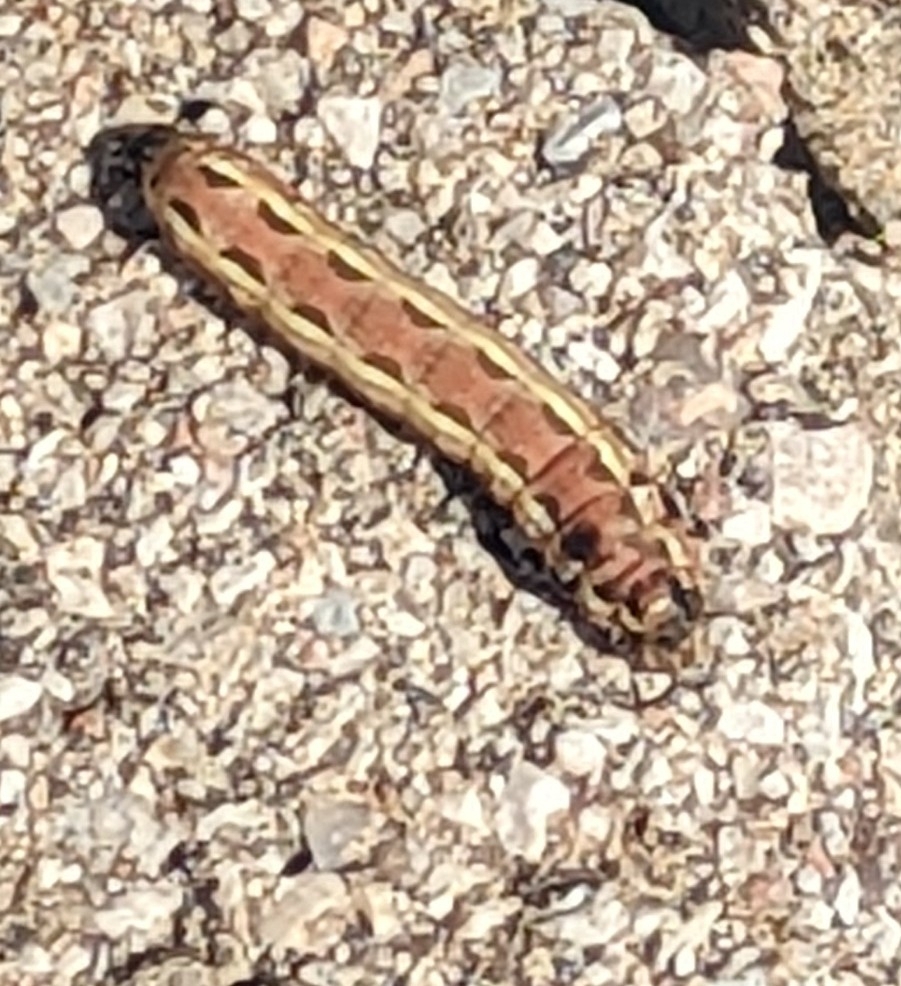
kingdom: Animalia
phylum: Arthropoda
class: Insecta
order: Lepidoptera
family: Noctuidae
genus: Spodoptera
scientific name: Spodoptera ornithogalli
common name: Yellow-striped armyworm
